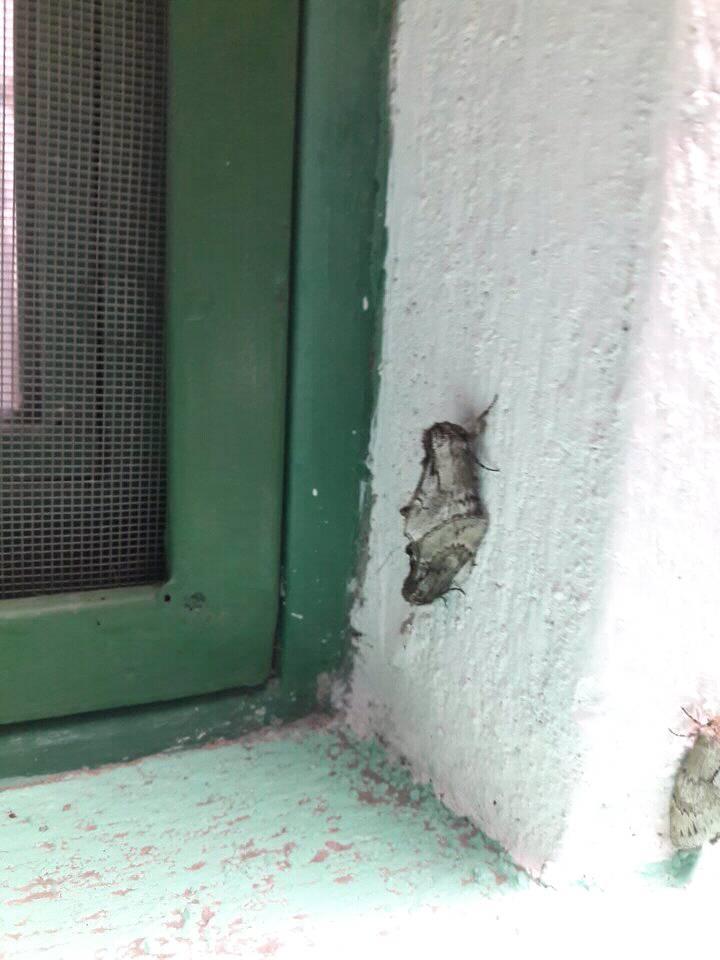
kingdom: Animalia
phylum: Arthropoda
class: Insecta
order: Lepidoptera
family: Notodontidae
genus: Cargida
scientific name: Cargida pyrrha
